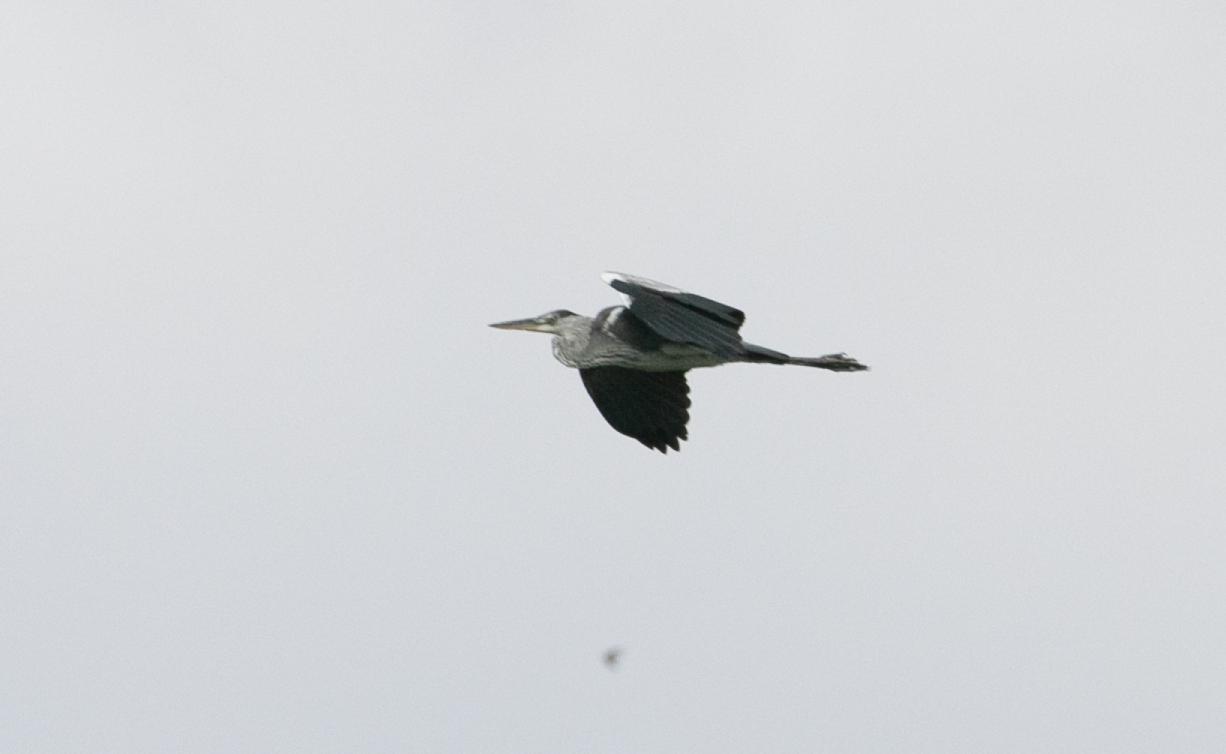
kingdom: Animalia
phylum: Chordata
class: Aves
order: Pelecaniformes
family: Ardeidae
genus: Ardea
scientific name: Ardea cinerea
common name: Grey heron
